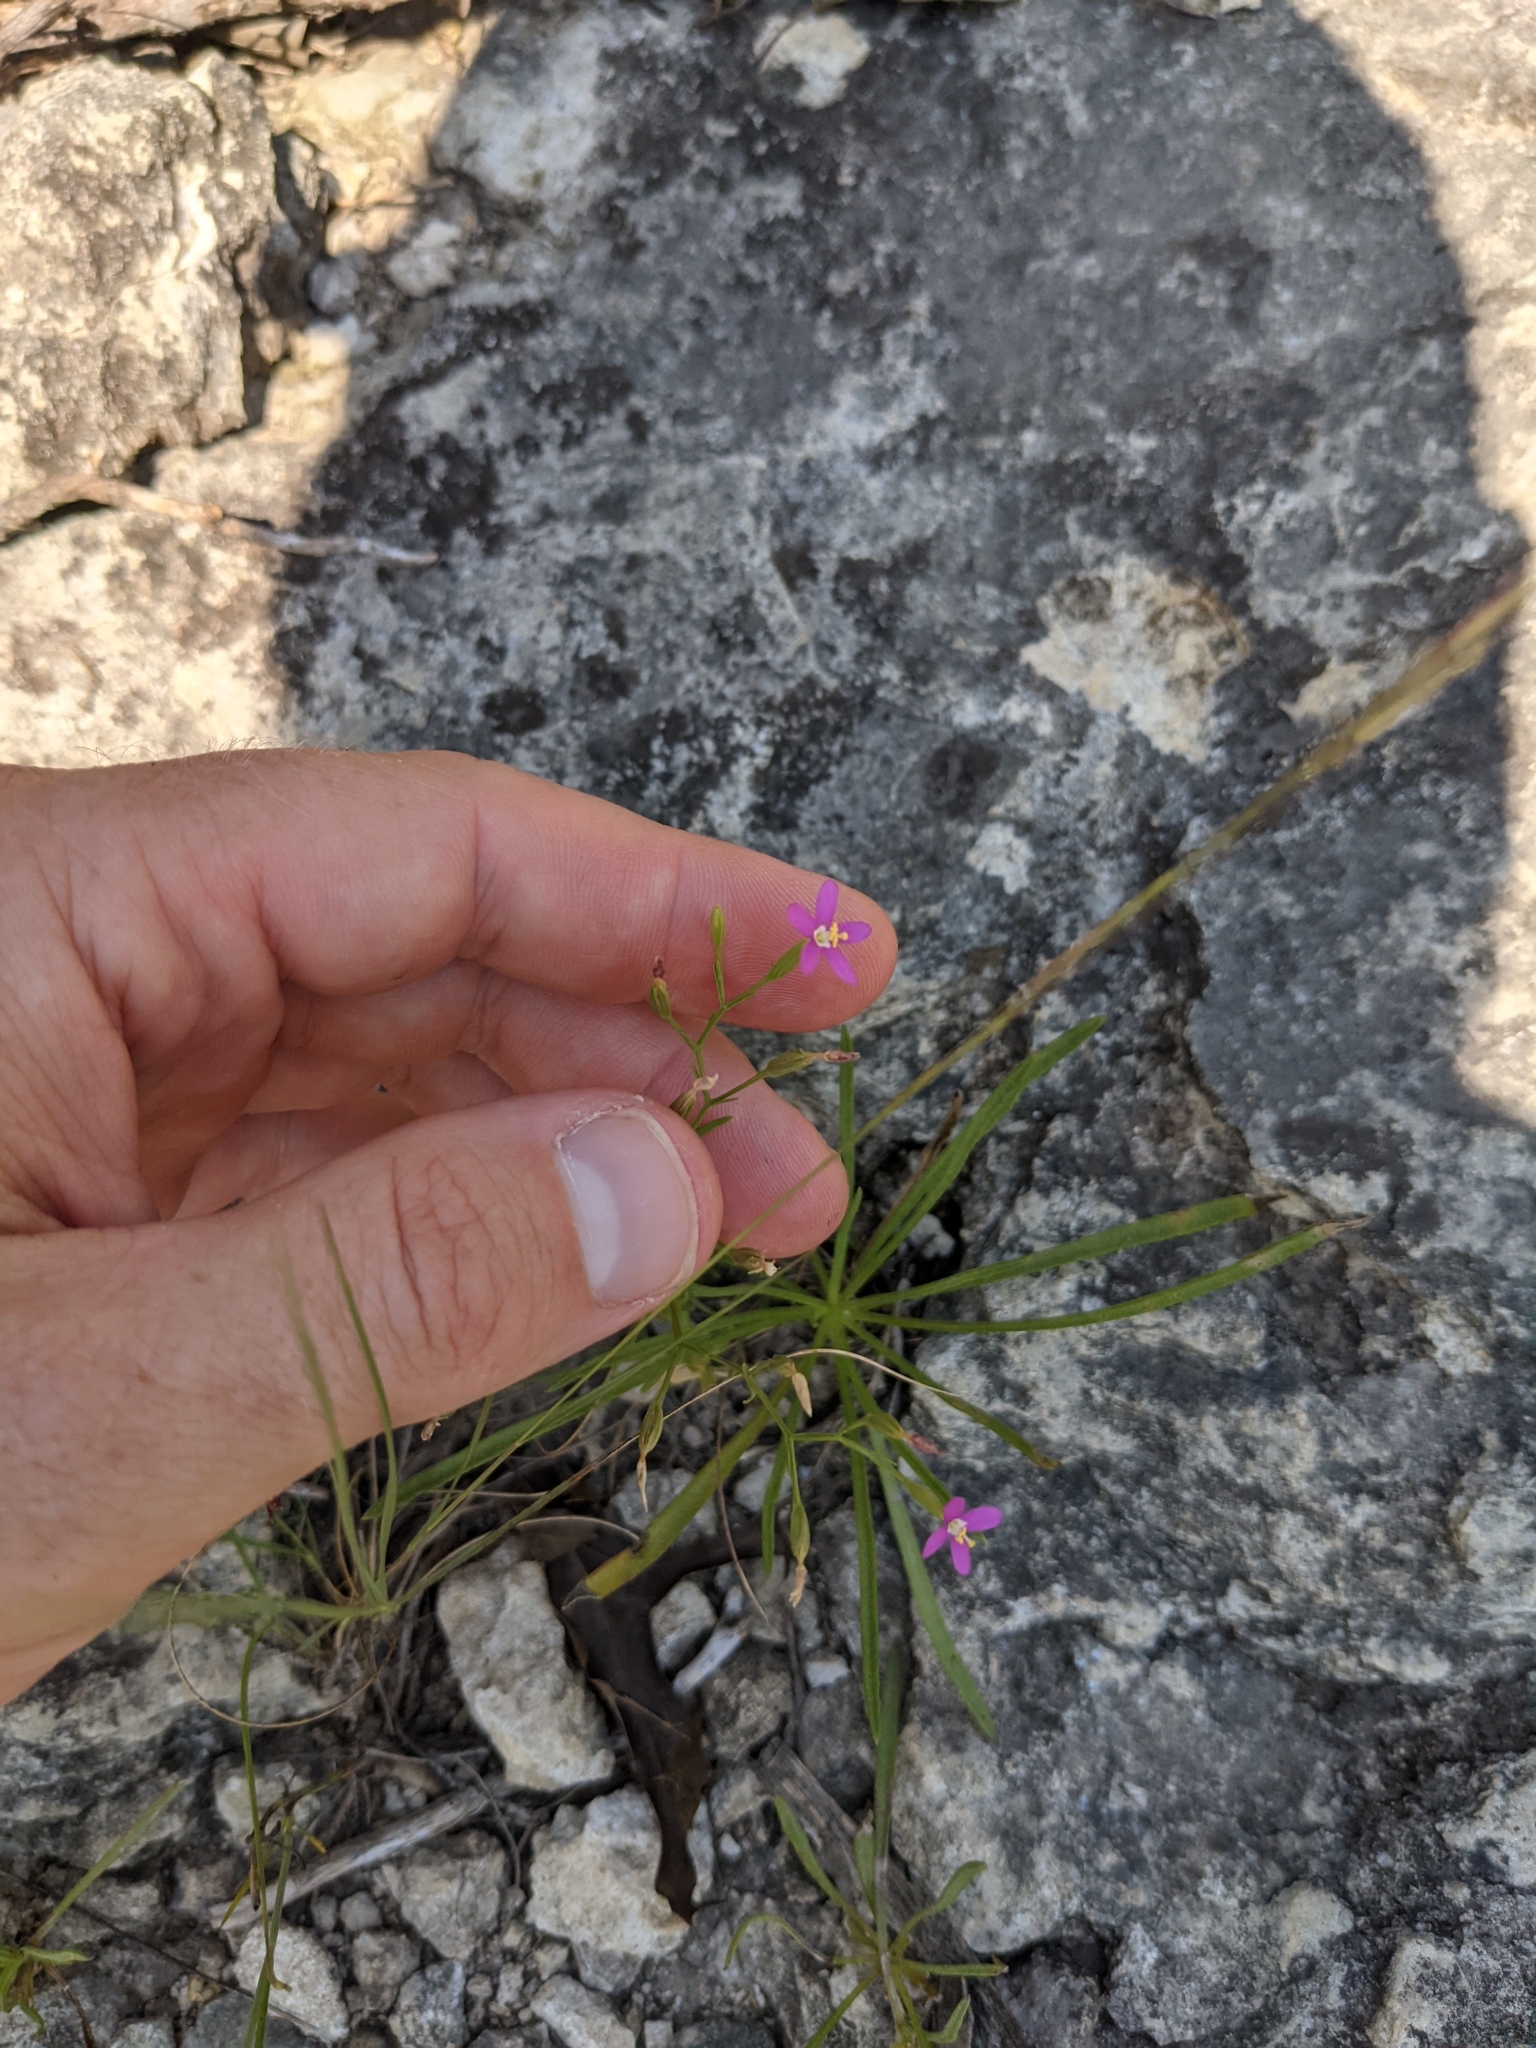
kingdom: Plantae
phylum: Tracheophyta
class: Magnoliopsida
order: Gentianales
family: Gentianaceae
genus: Zeltnera
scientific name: Zeltnera texensis
